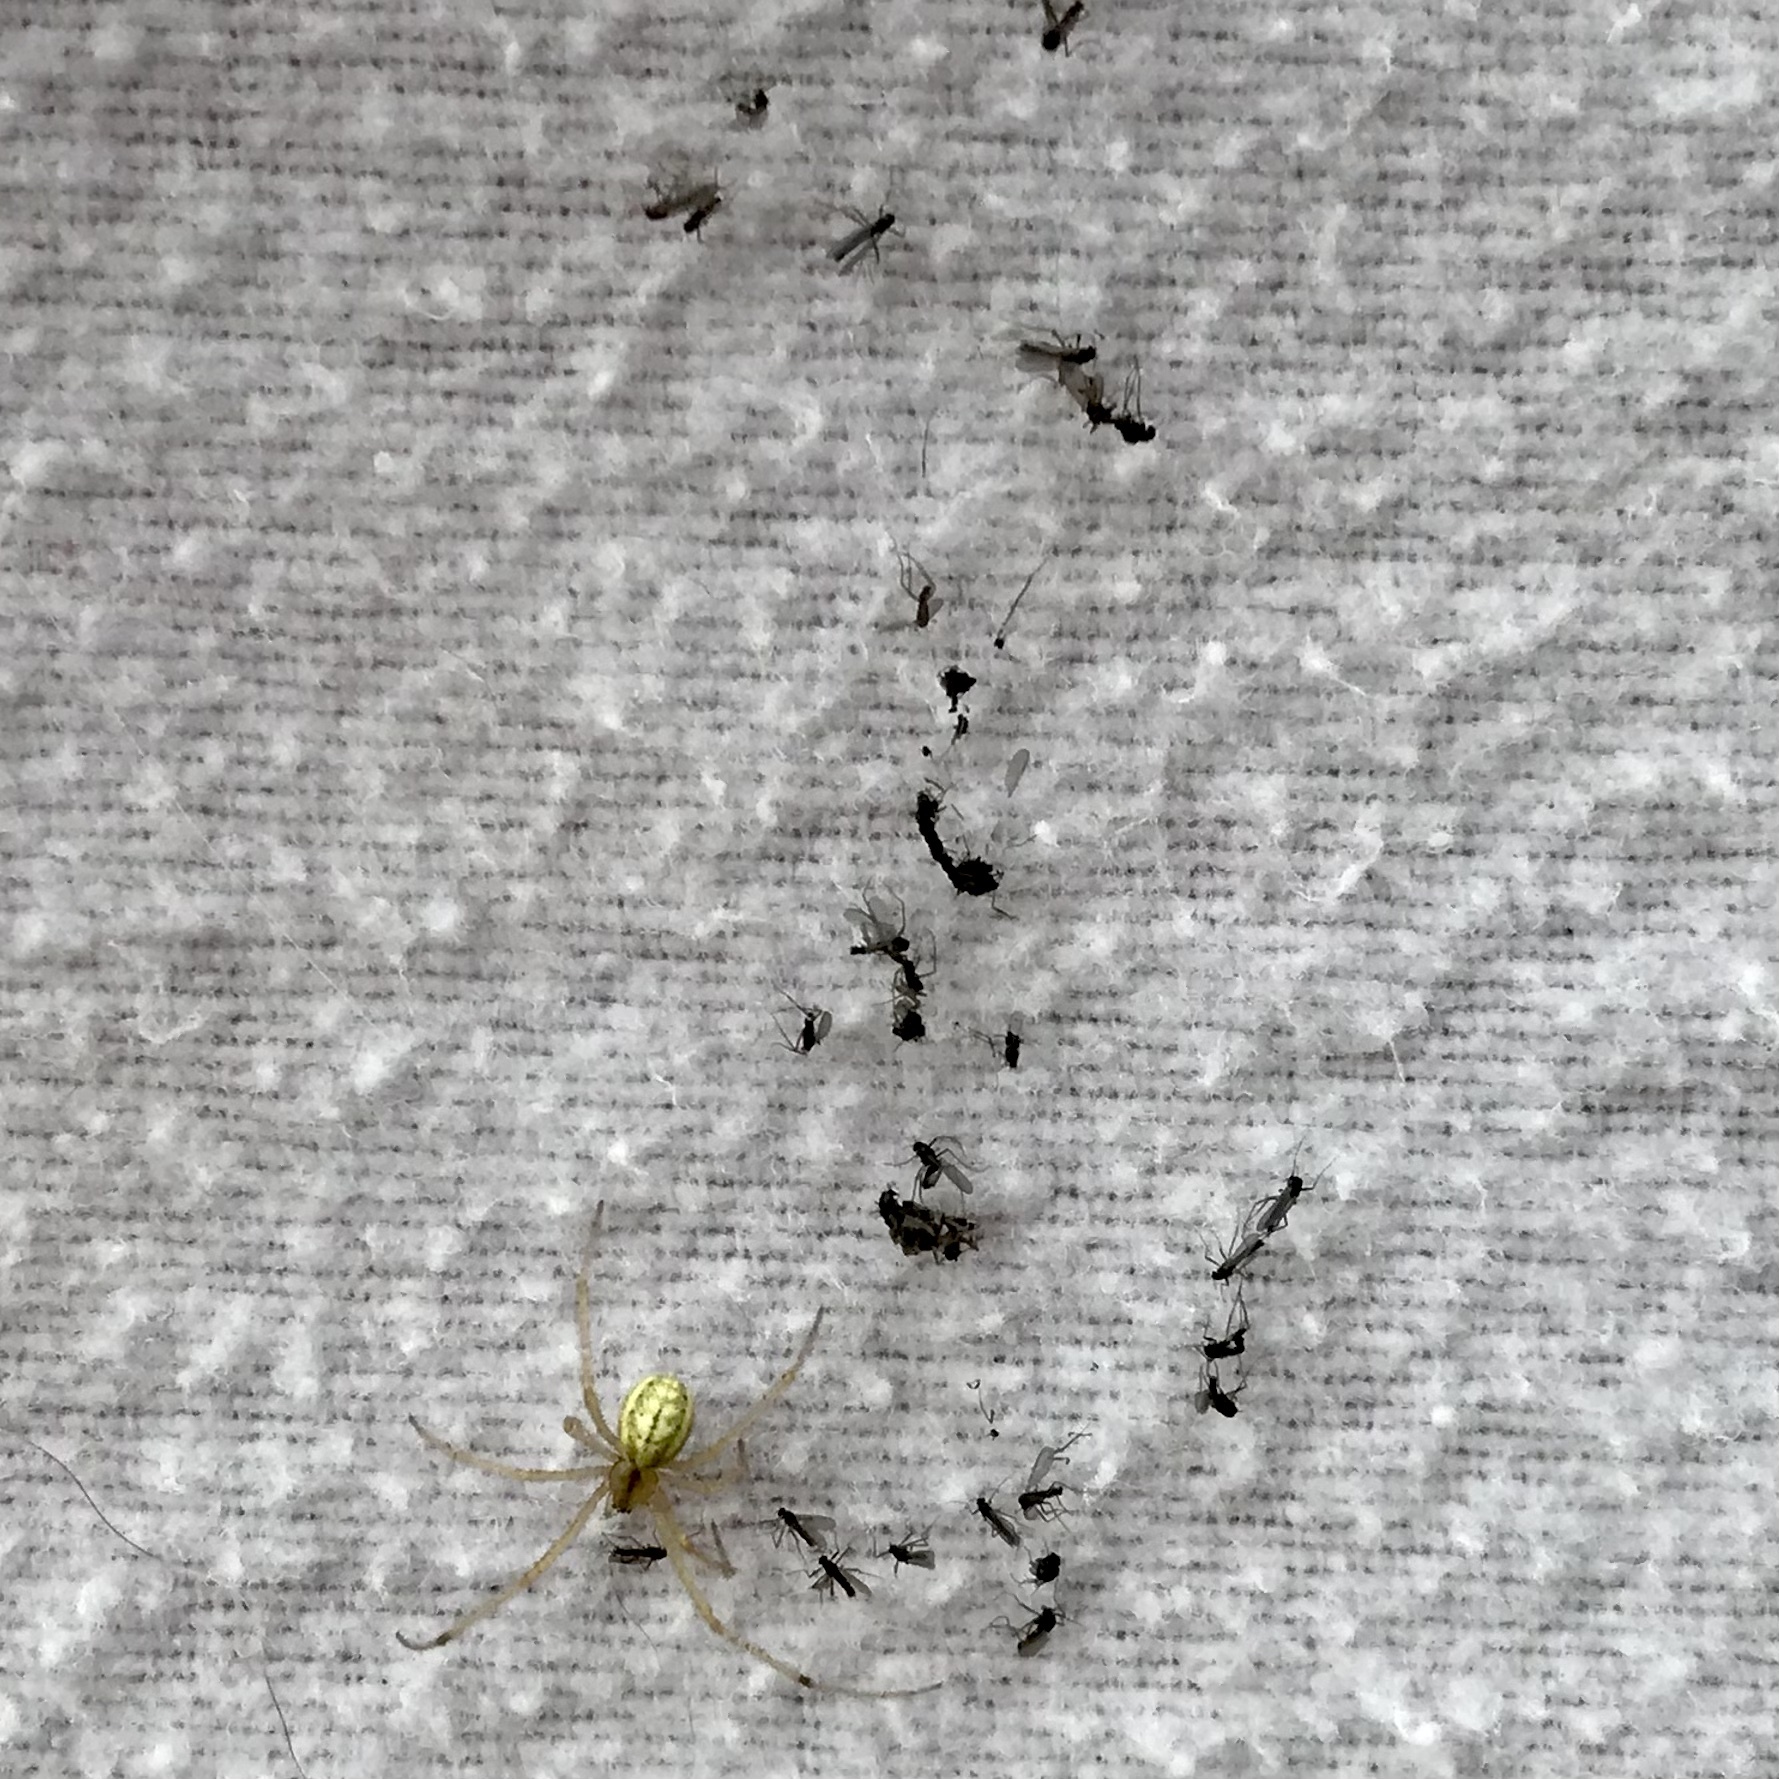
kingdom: Animalia
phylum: Arthropoda
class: Arachnida
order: Araneae
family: Theridiidae
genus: Enoplognatha
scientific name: Enoplognatha ovata
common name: Common candy-striped spider
